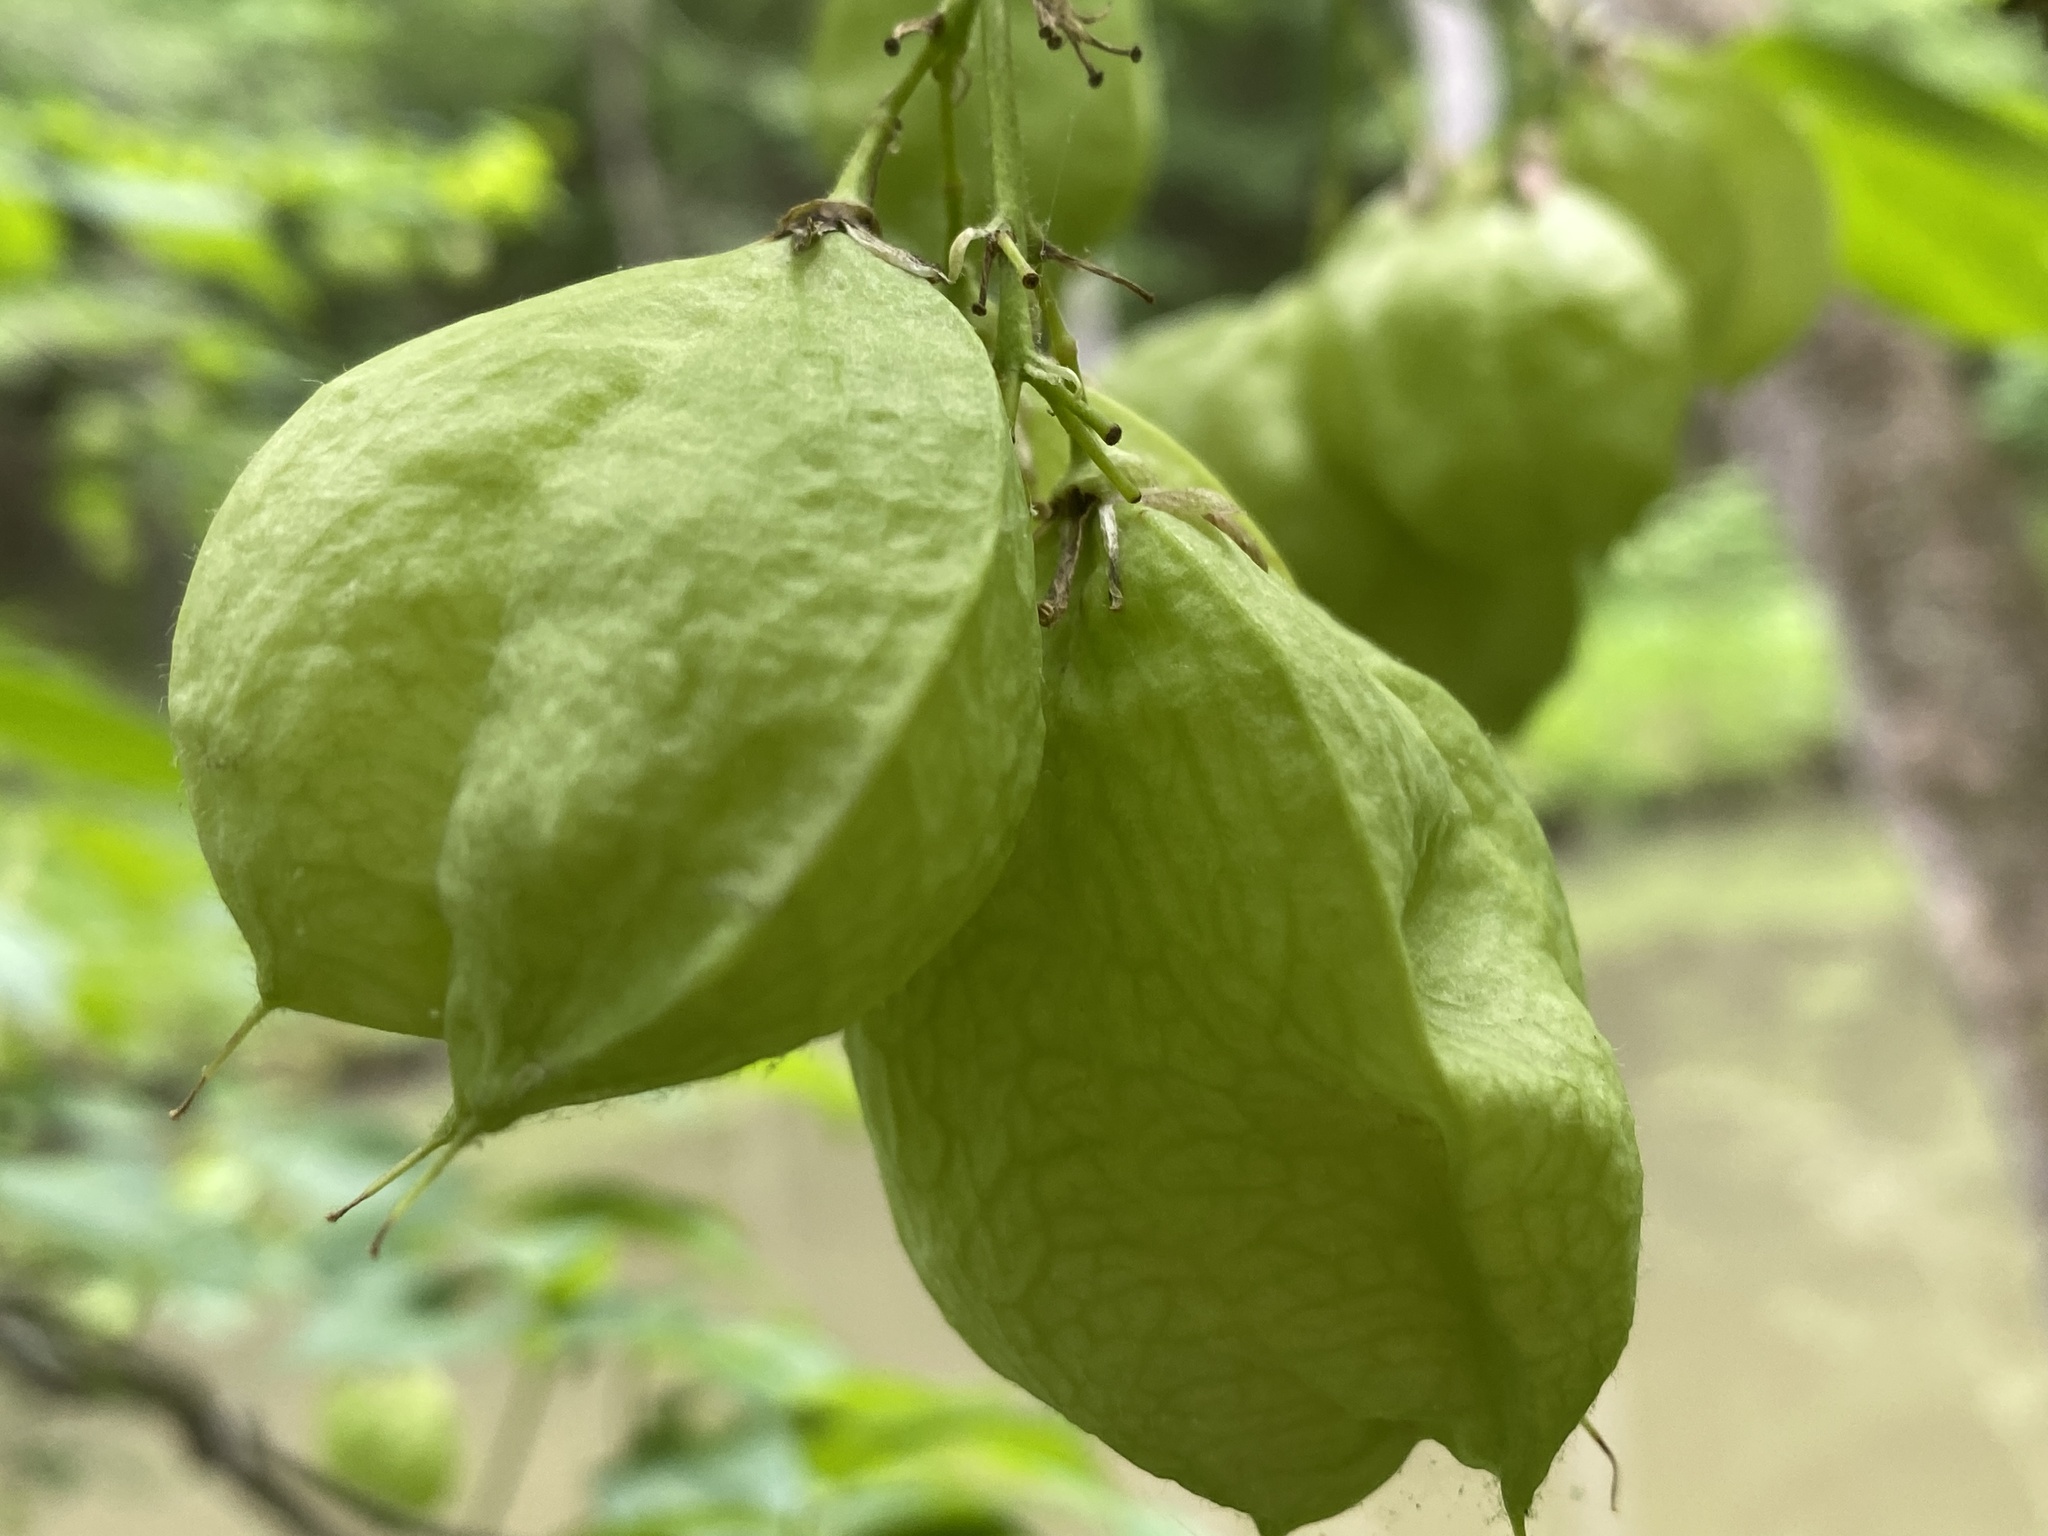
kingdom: Plantae
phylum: Tracheophyta
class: Magnoliopsida
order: Crossosomatales
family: Staphyleaceae
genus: Staphylea
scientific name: Staphylea trifolia
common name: American bladdernut
